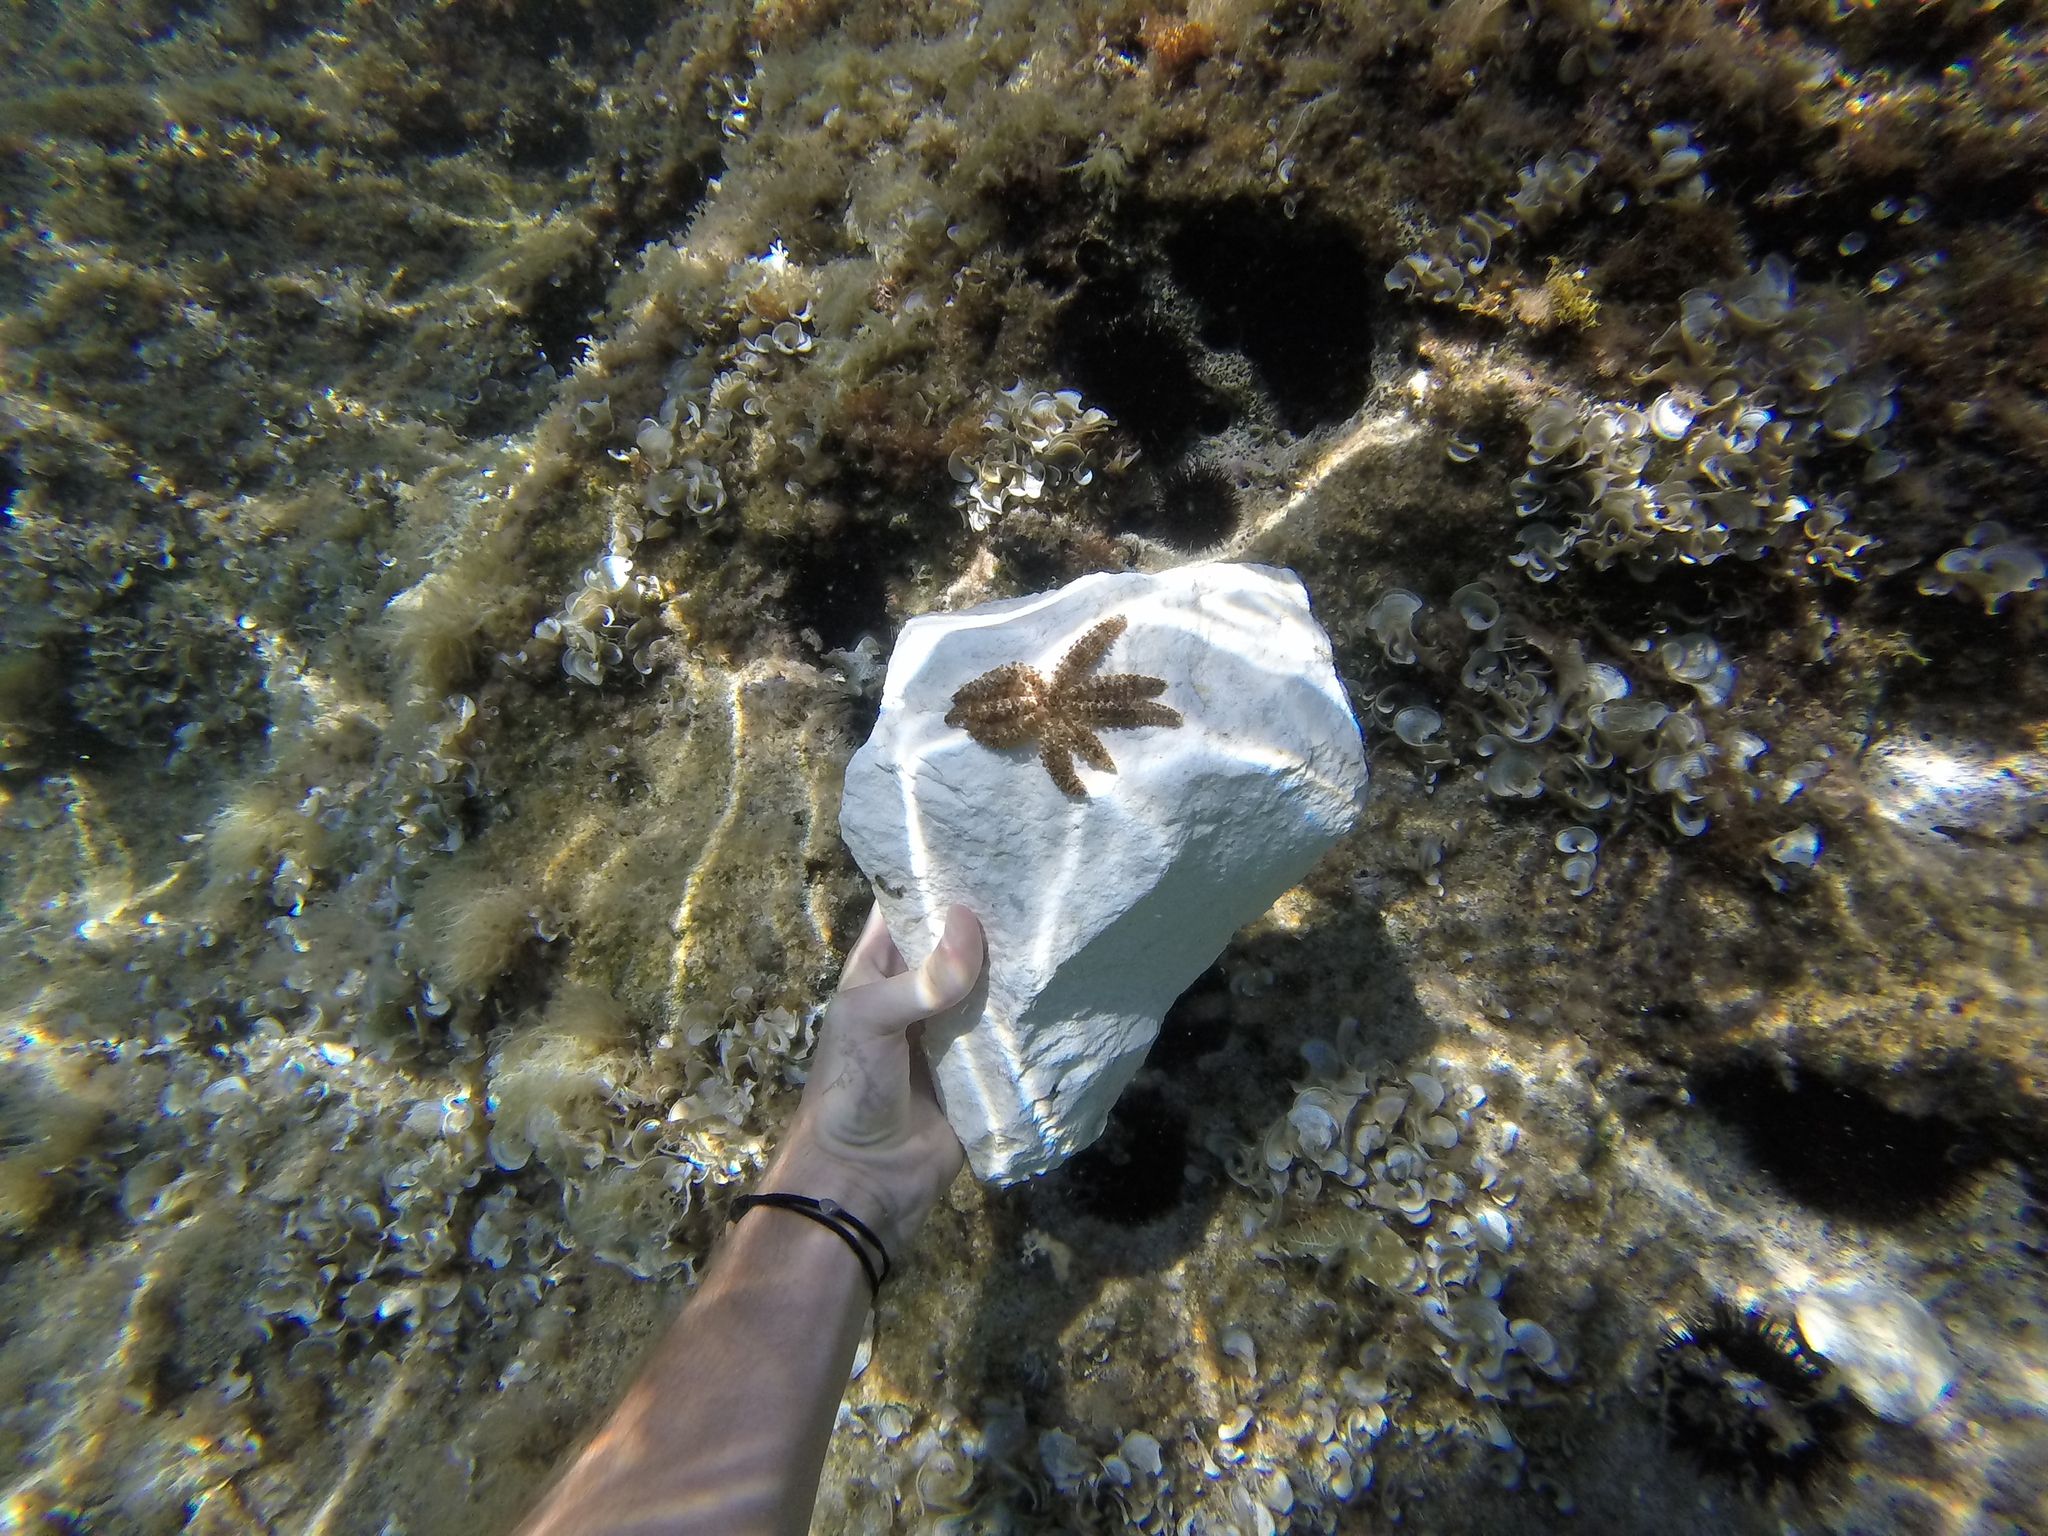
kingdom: Animalia
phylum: Echinodermata
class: Asteroidea
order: Forcipulatida
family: Asteriidae
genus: Coscinasterias
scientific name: Coscinasterias tenuispina
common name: Blue spiny starfish
